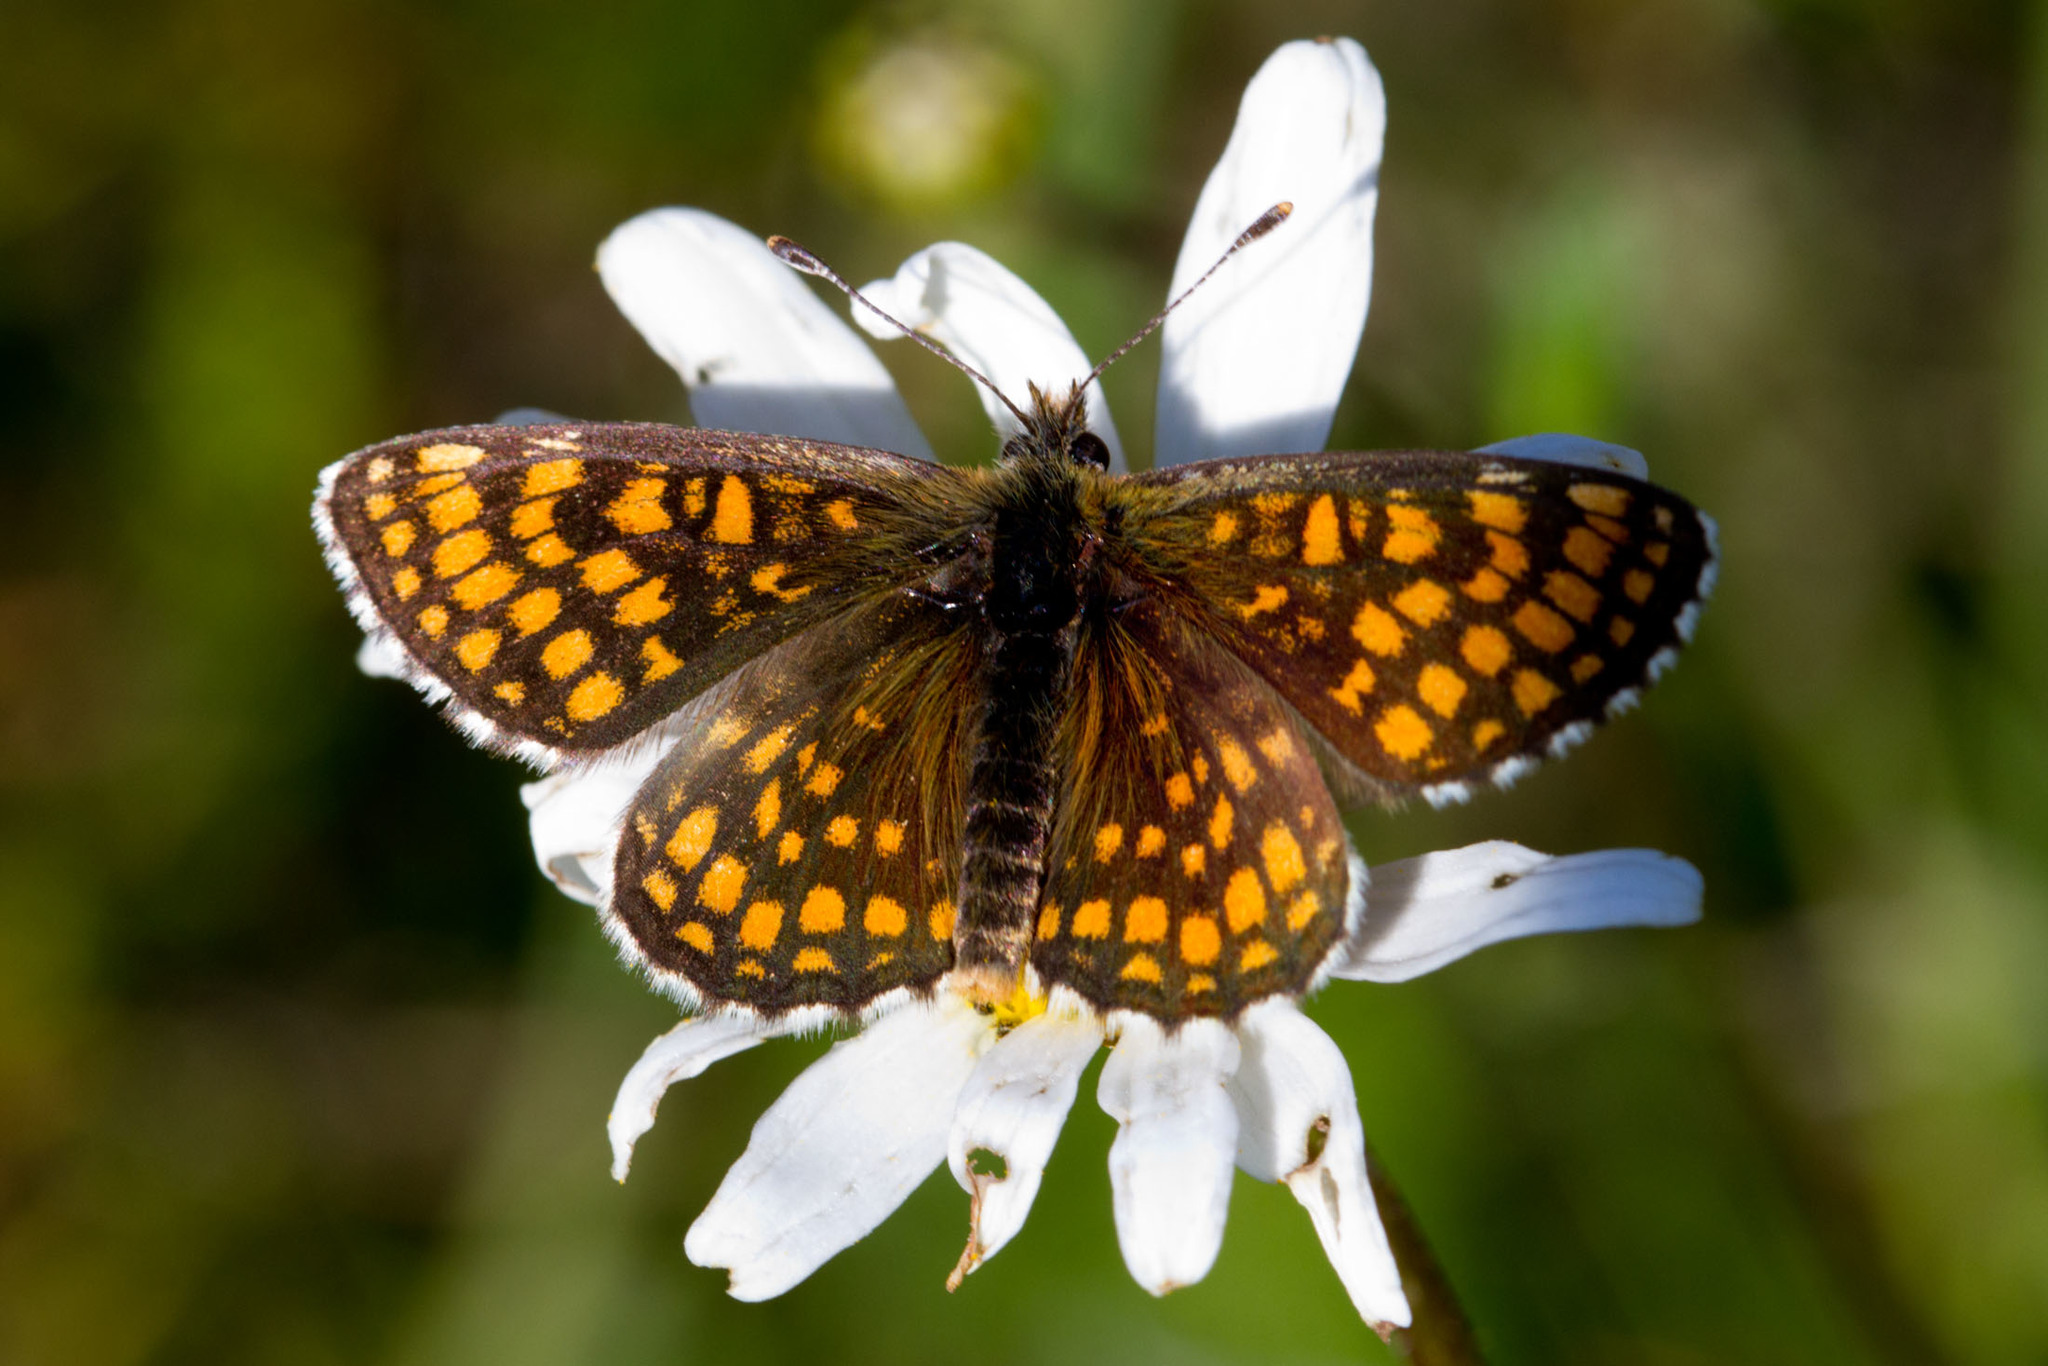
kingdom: Animalia
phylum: Arthropoda
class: Insecta
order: Lepidoptera
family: Nymphalidae
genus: Mellicta
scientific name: Mellicta aurelia
